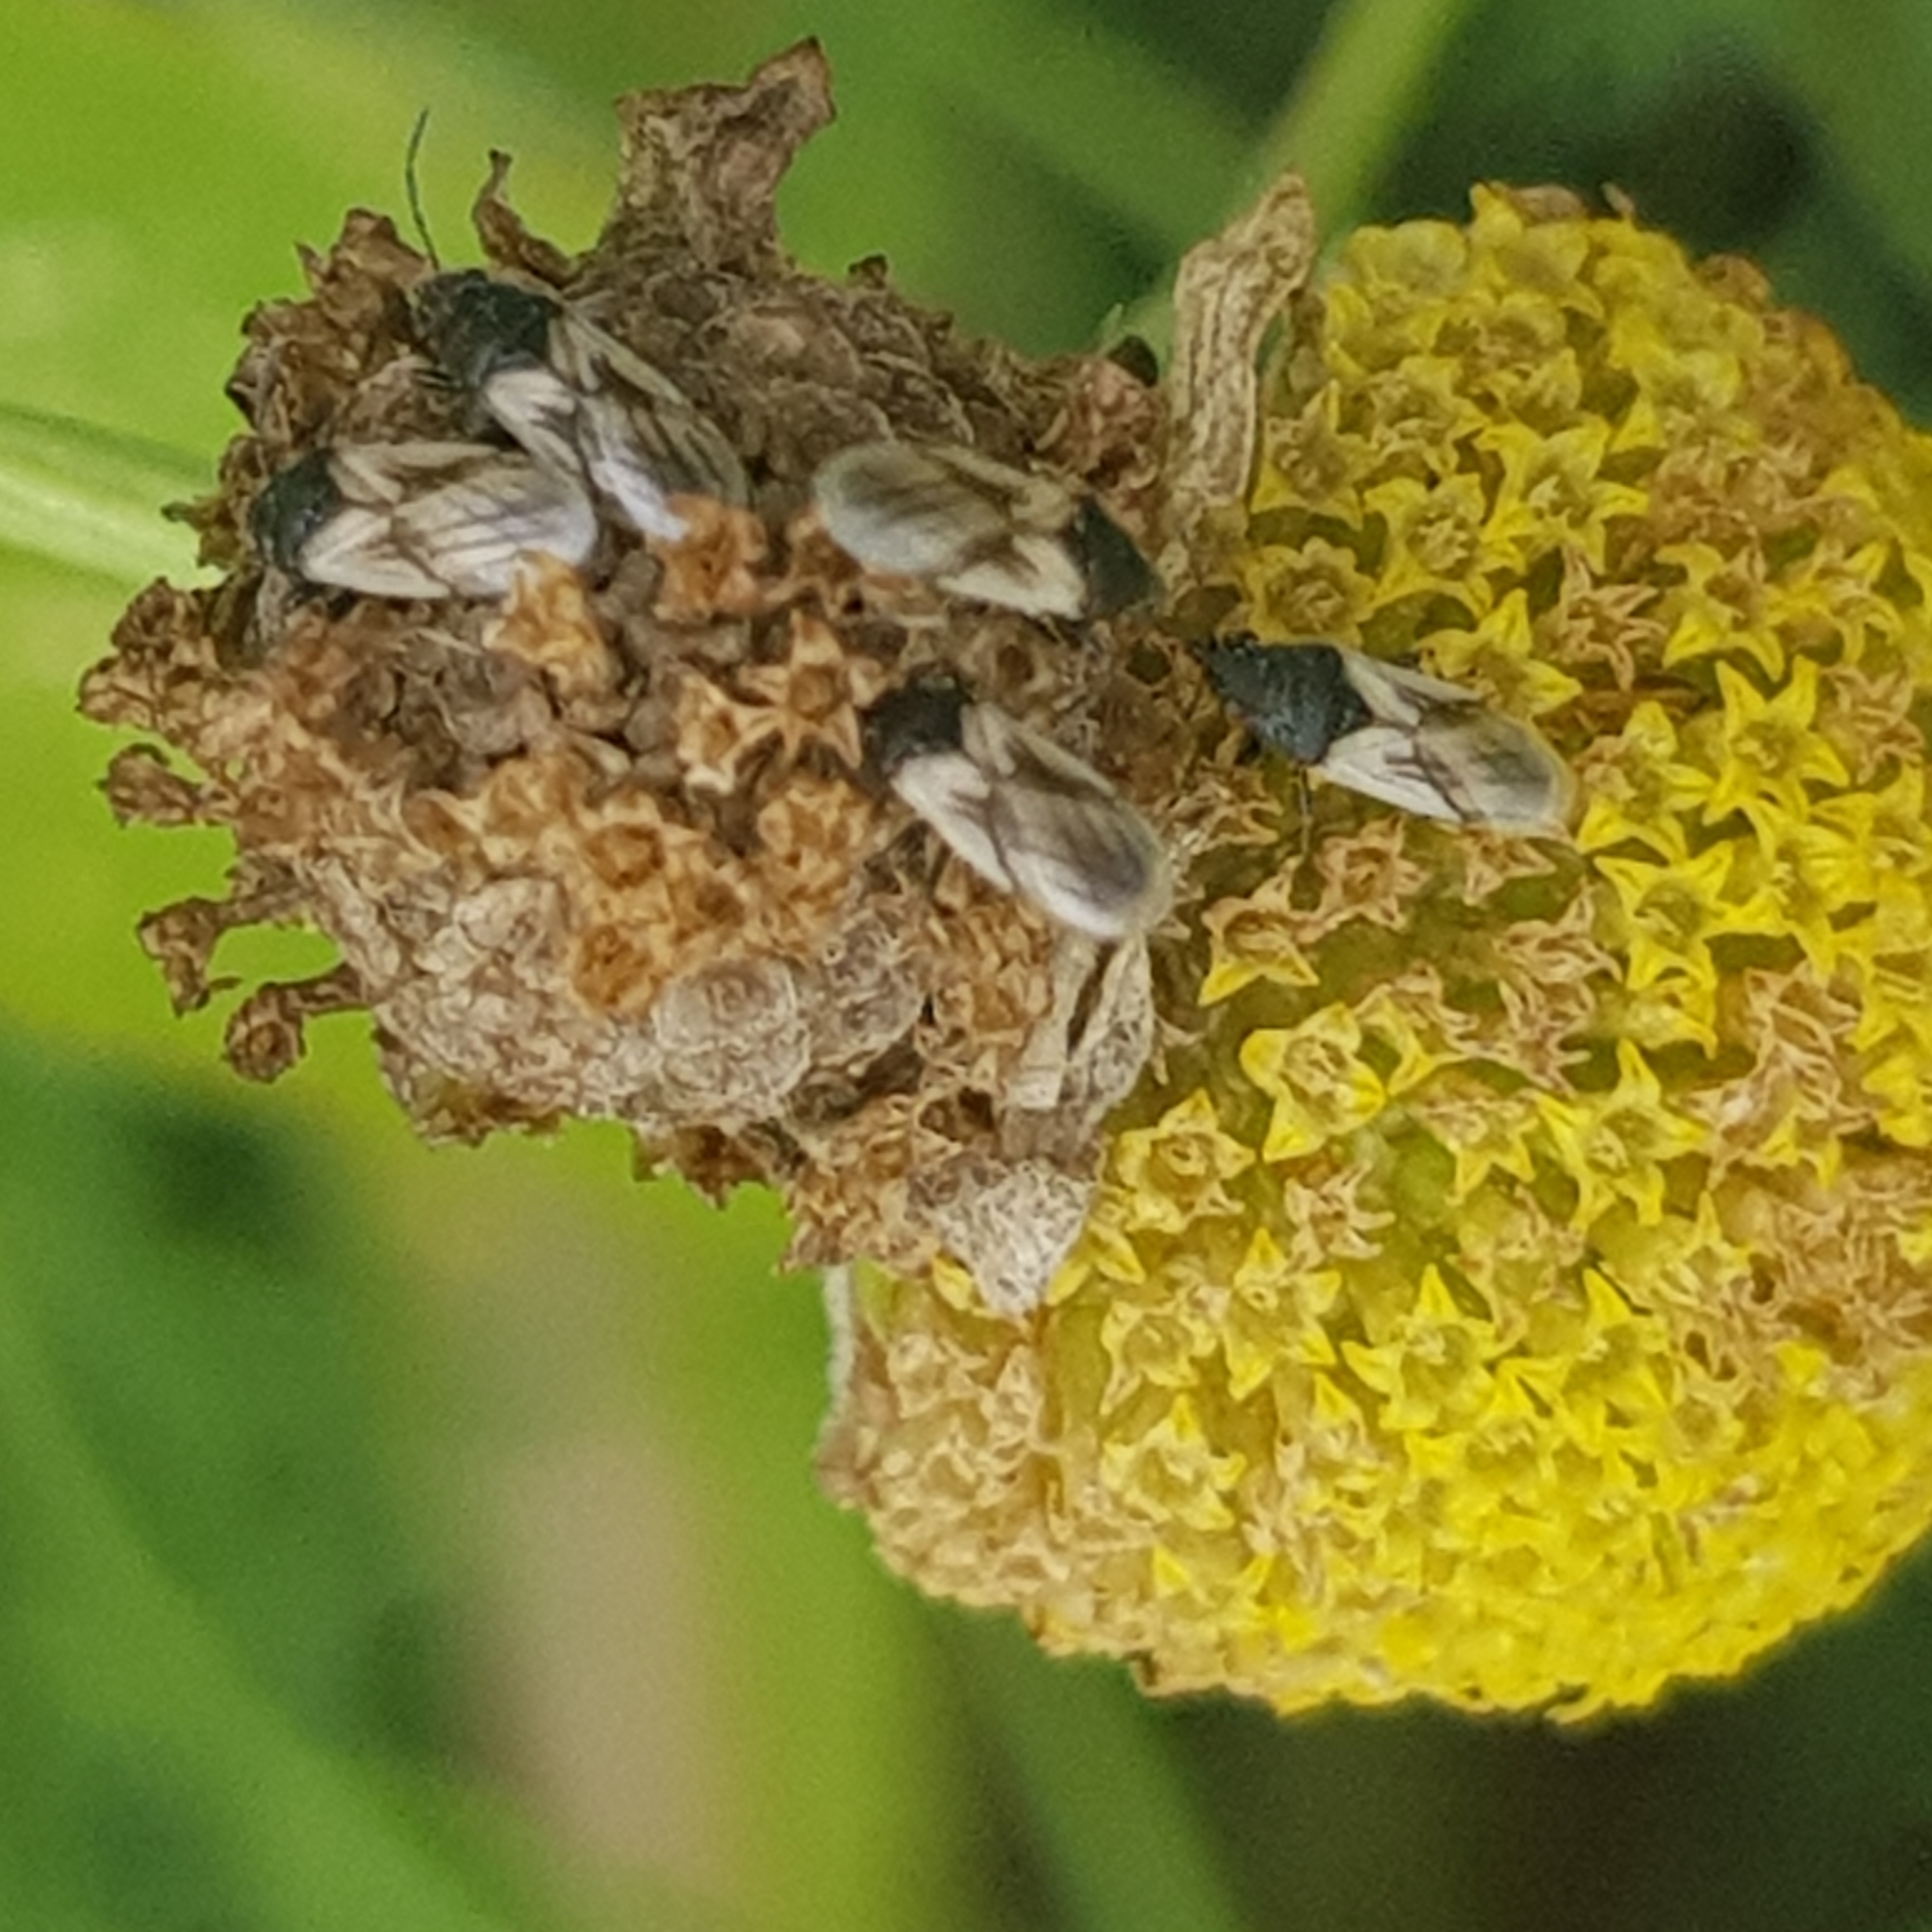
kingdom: Animalia
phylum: Arthropoda
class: Insecta
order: Hemiptera
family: Oxycarenidae
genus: Metopoplax
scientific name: Metopoplax ditomoides
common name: Seed bug
